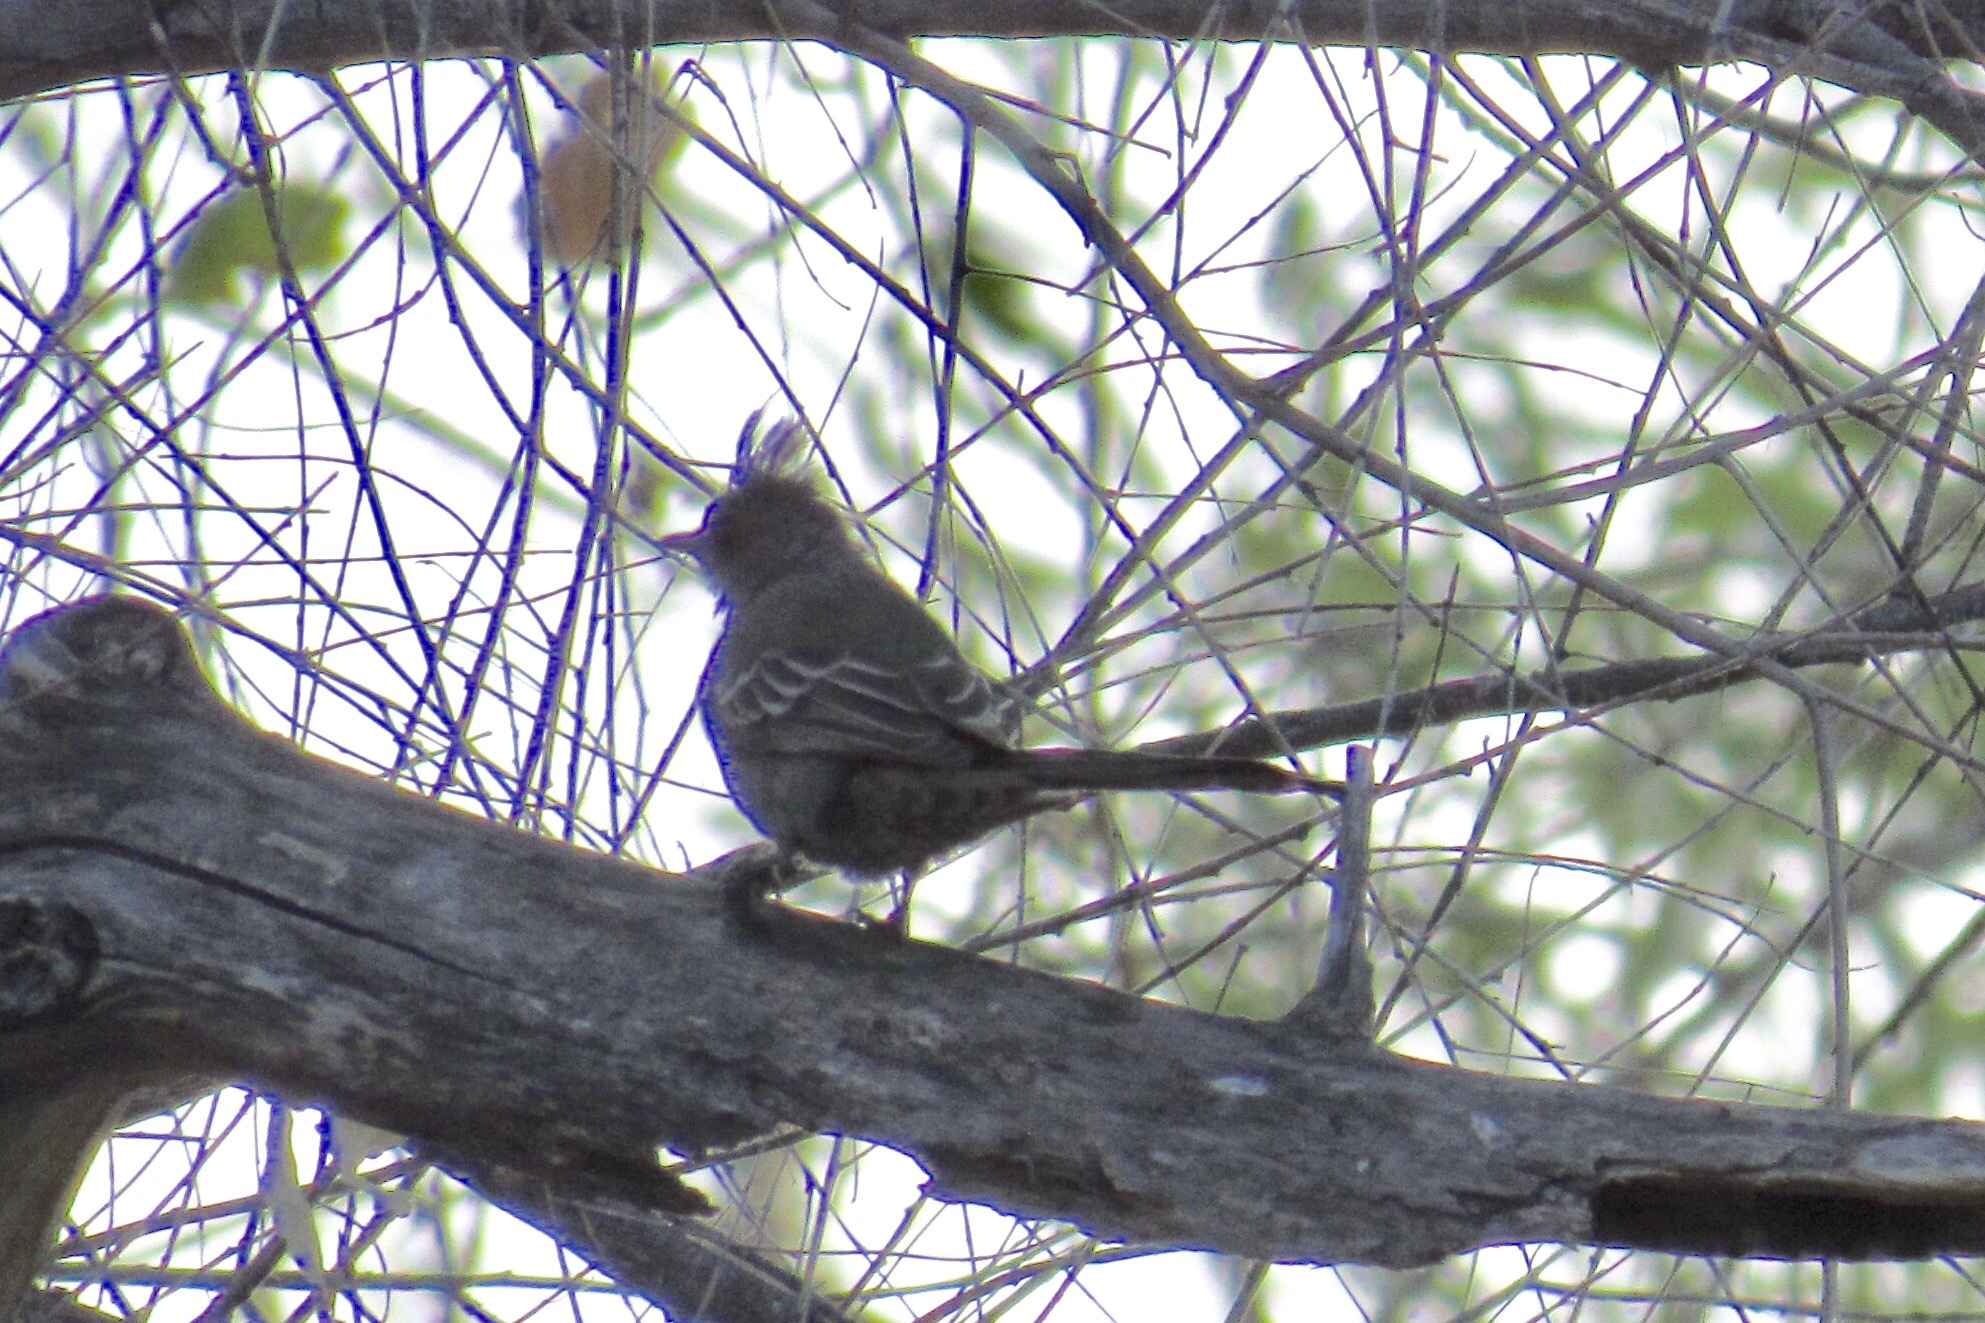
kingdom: Animalia
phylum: Chordata
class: Aves
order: Passeriformes
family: Ptilogonatidae
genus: Phainopepla
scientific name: Phainopepla nitens
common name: Phainopepla
